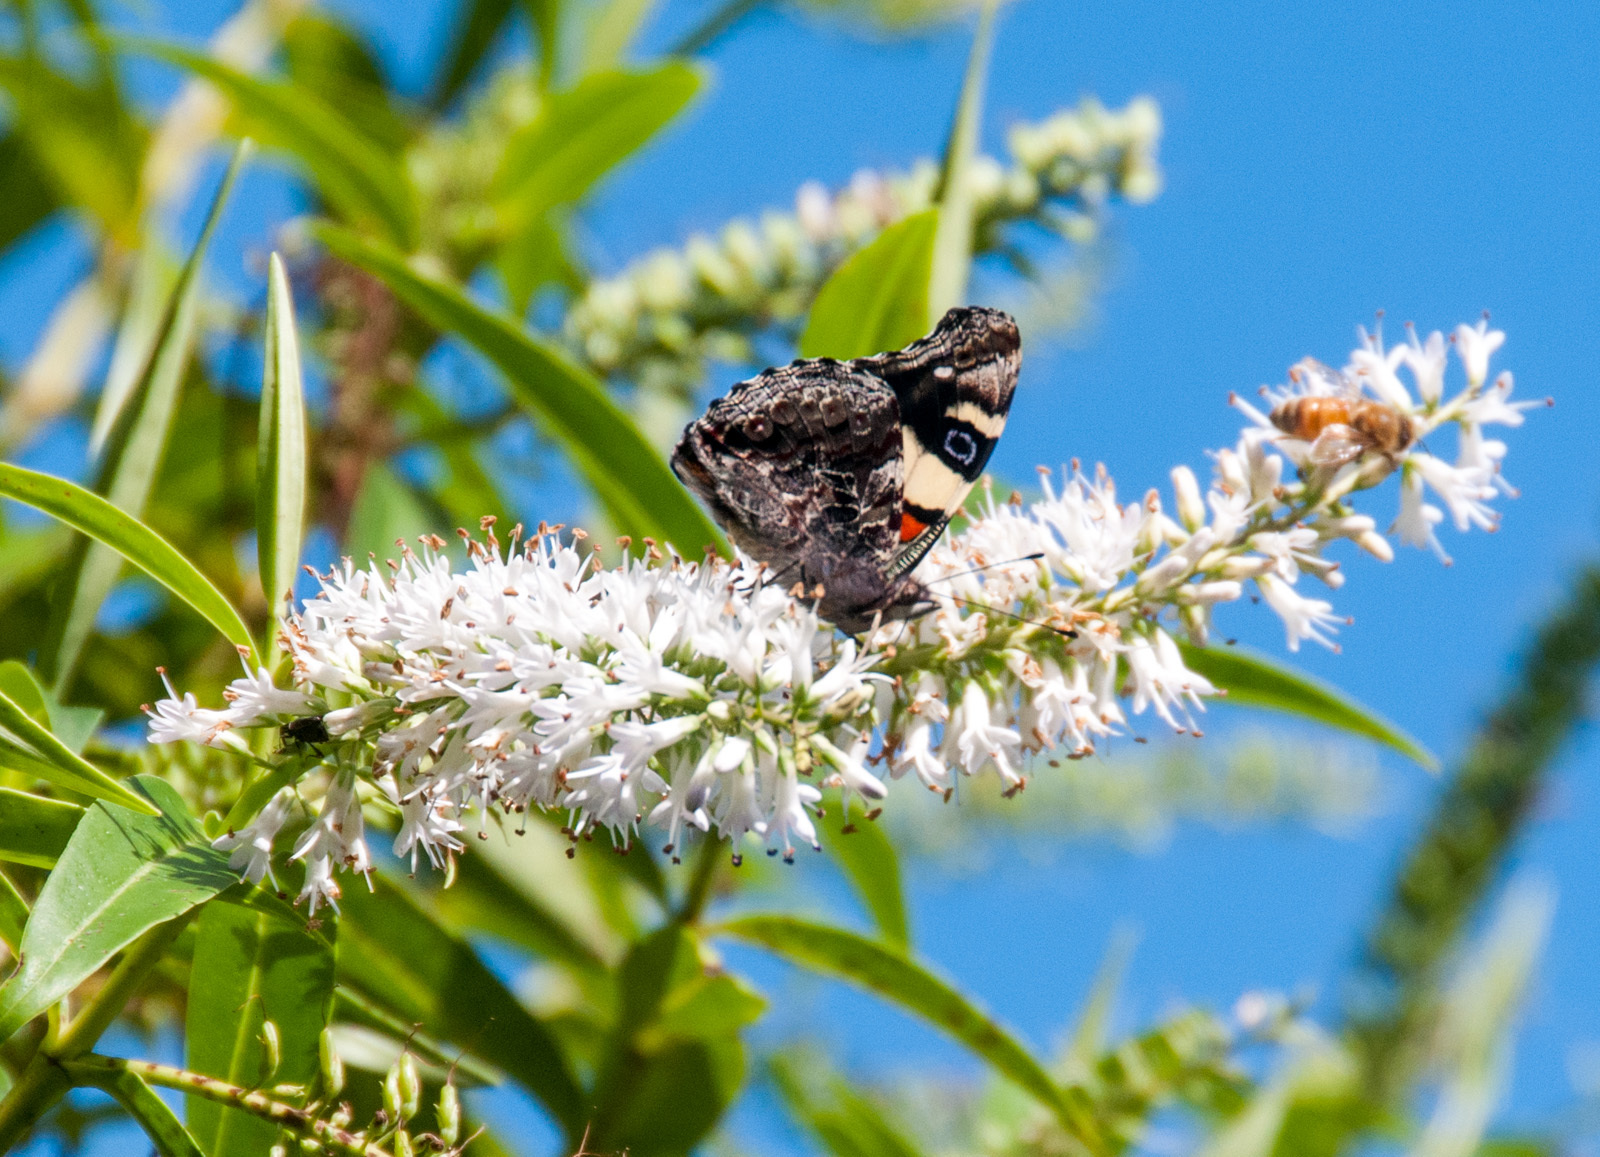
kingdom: Animalia
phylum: Arthropoda
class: Insecta
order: Lepidoptera
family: Nymphalidae
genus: Vanessa
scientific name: Vanessa itea
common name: Yellow admiral
